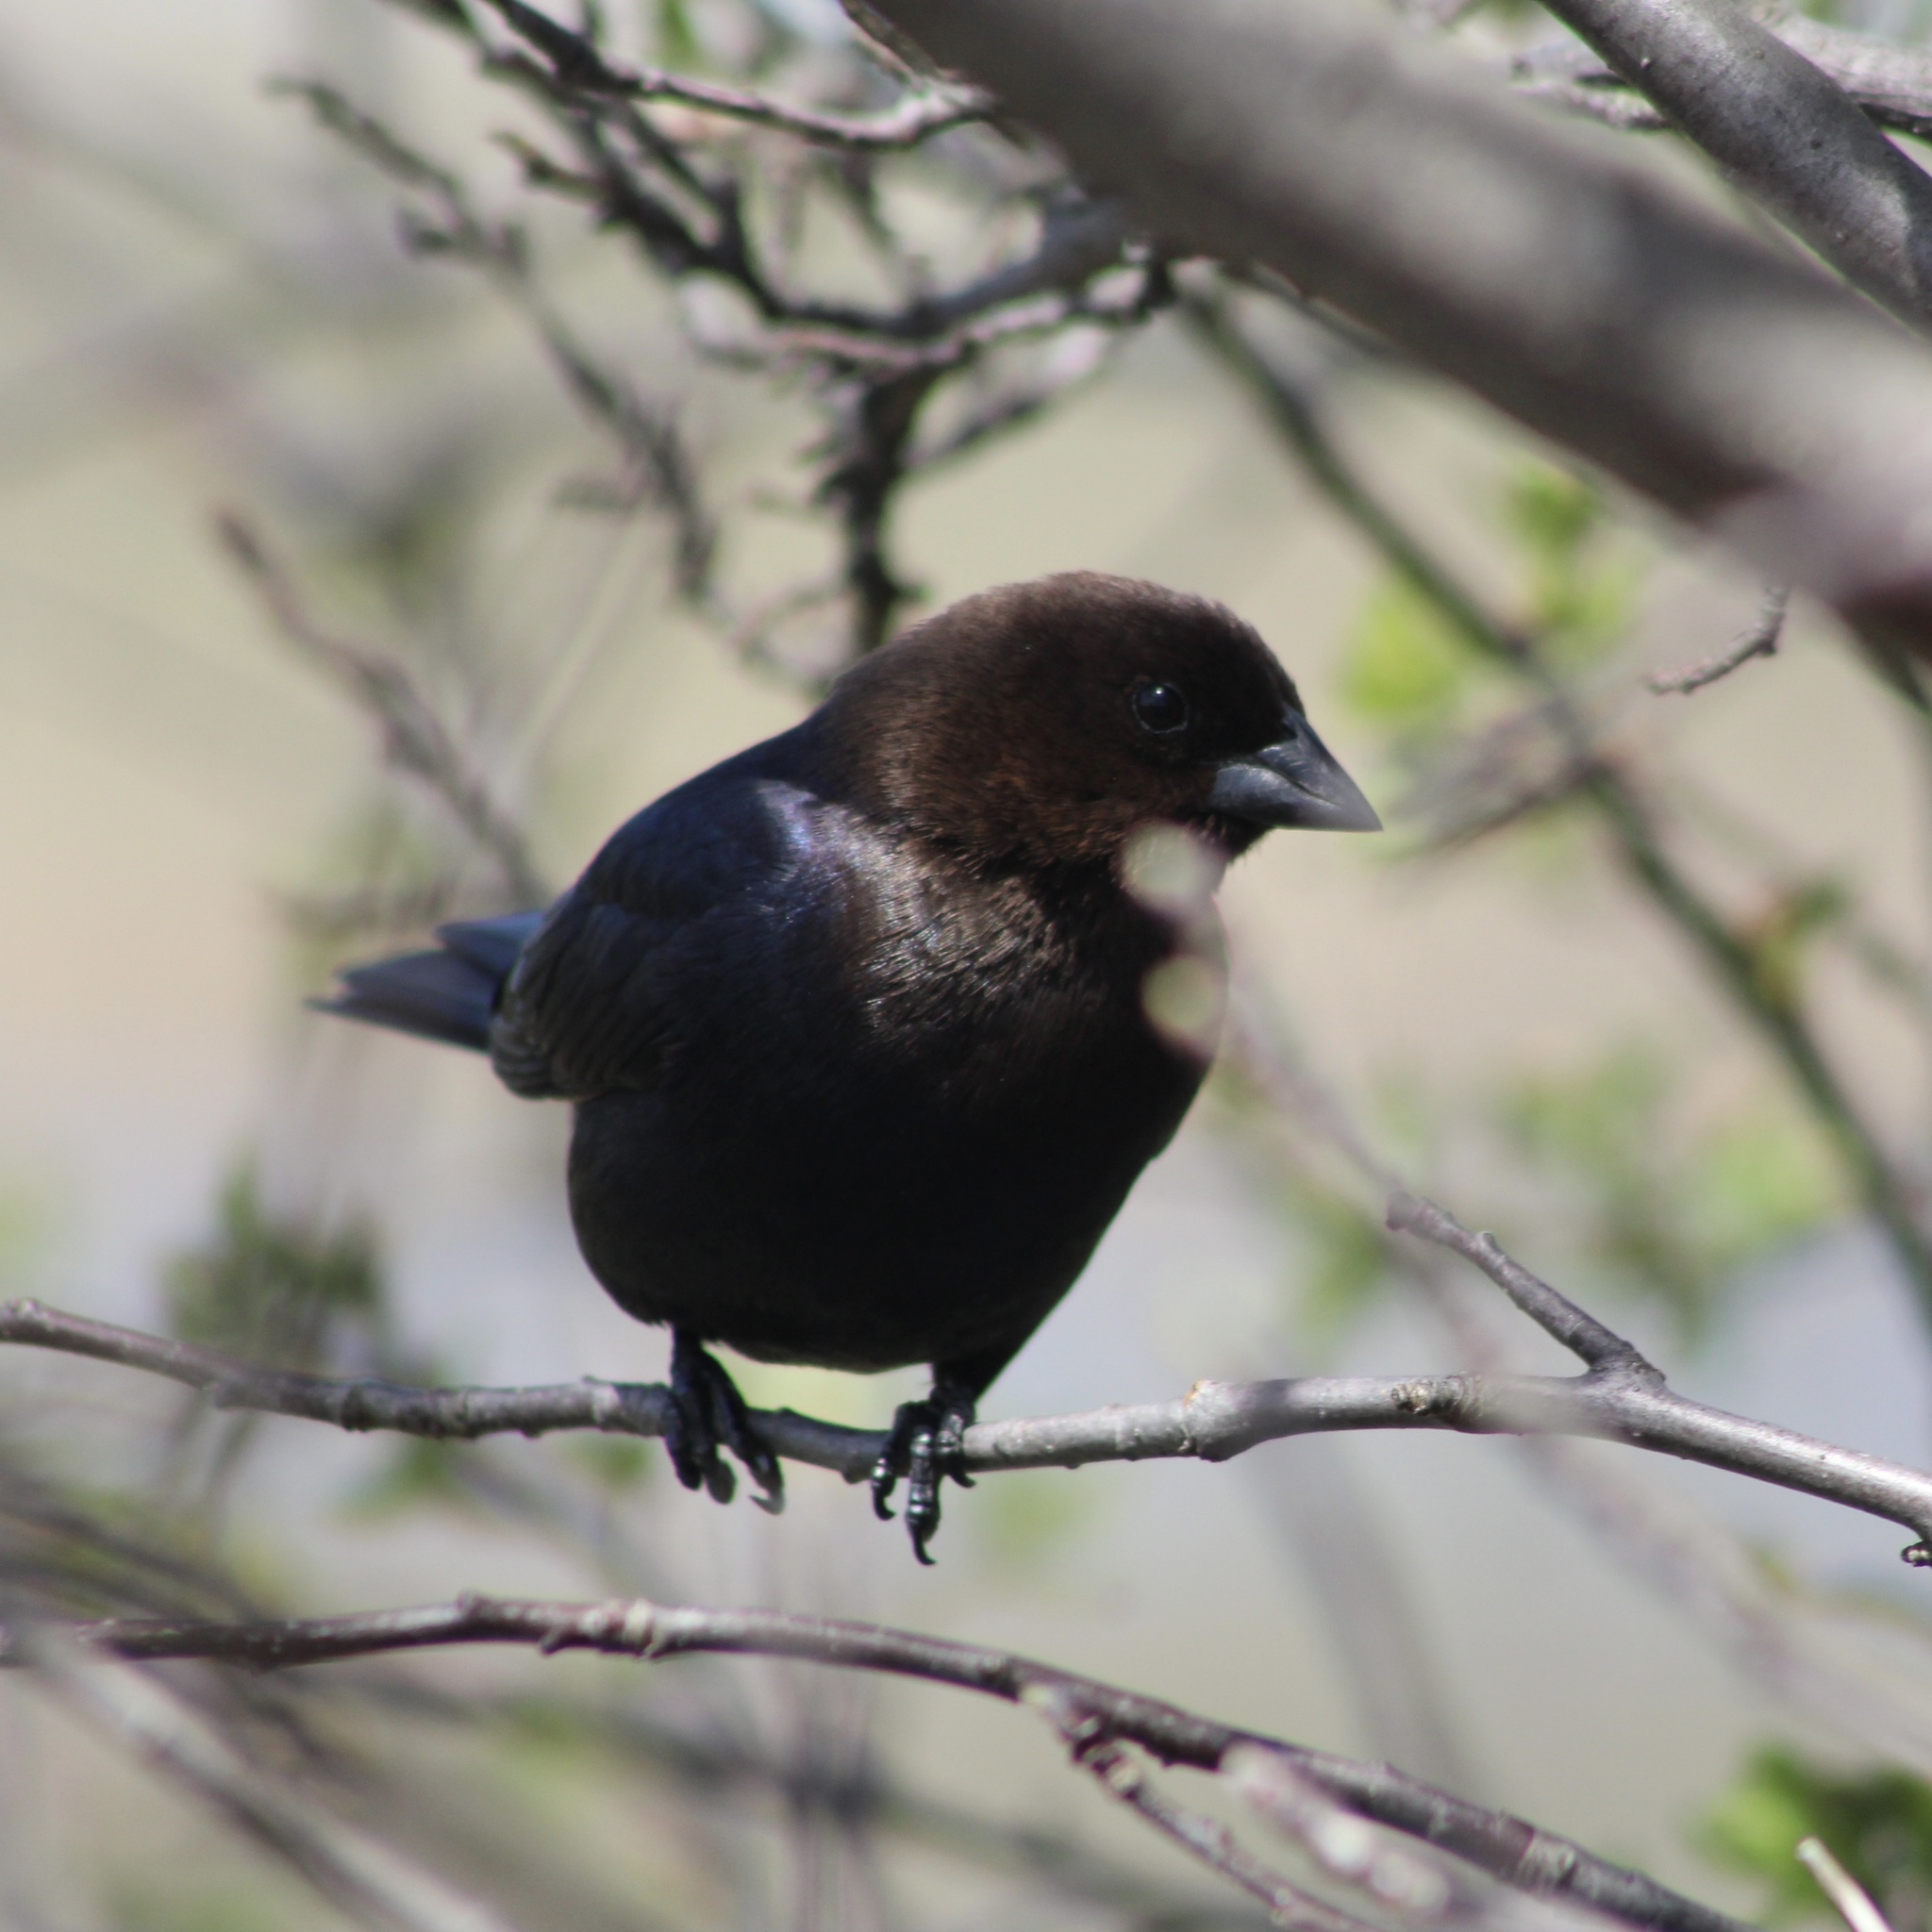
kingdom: Animalia
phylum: Chordata
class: Aves
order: Passeriformes
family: Icteridae
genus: Molothrus
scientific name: Molothrus ater
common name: Brown-headed cowbird
